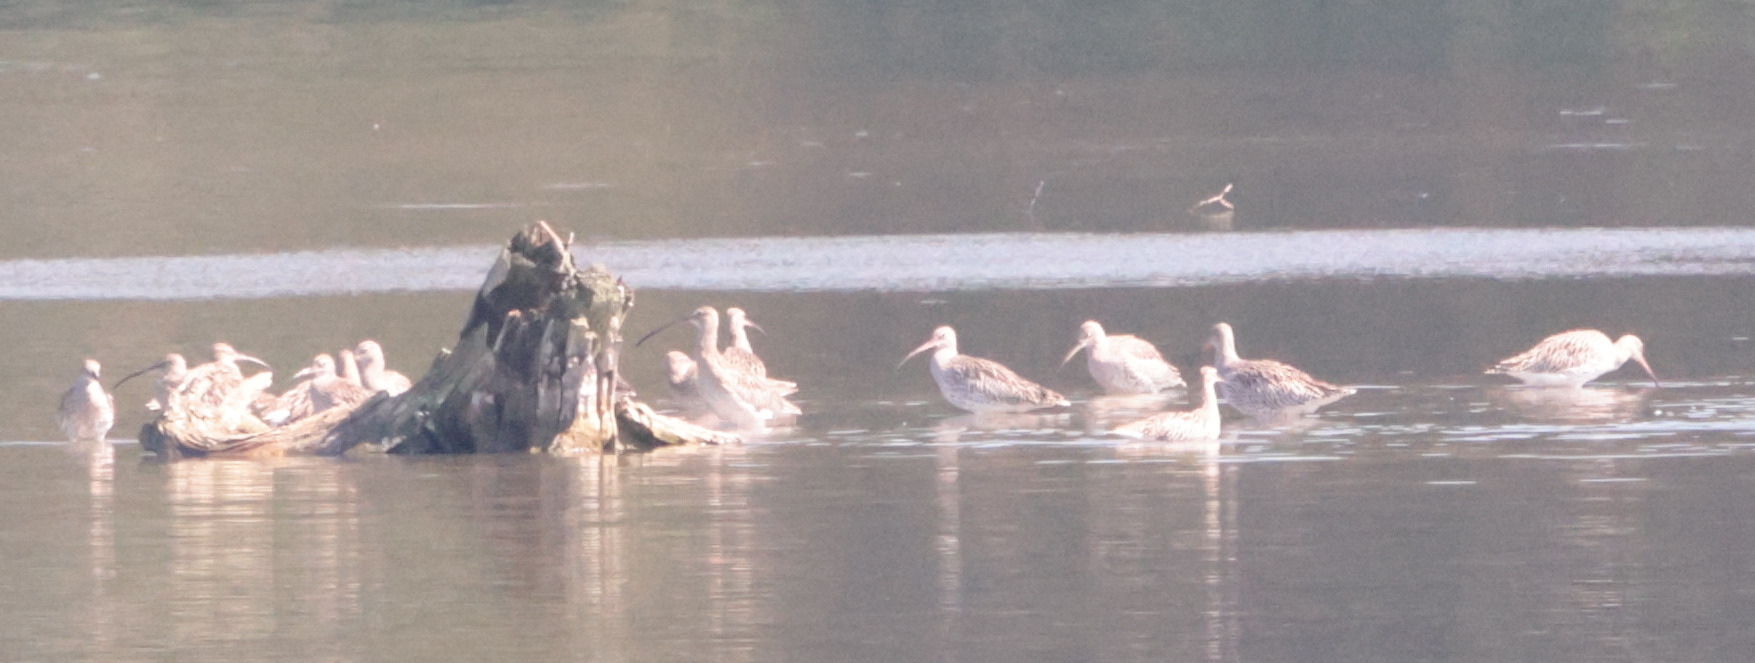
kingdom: Animalia
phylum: Chordata
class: Aves
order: Charadriiformes
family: Scolopacidae
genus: Numenius
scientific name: Numenius arquata
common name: Eurasian curlew
